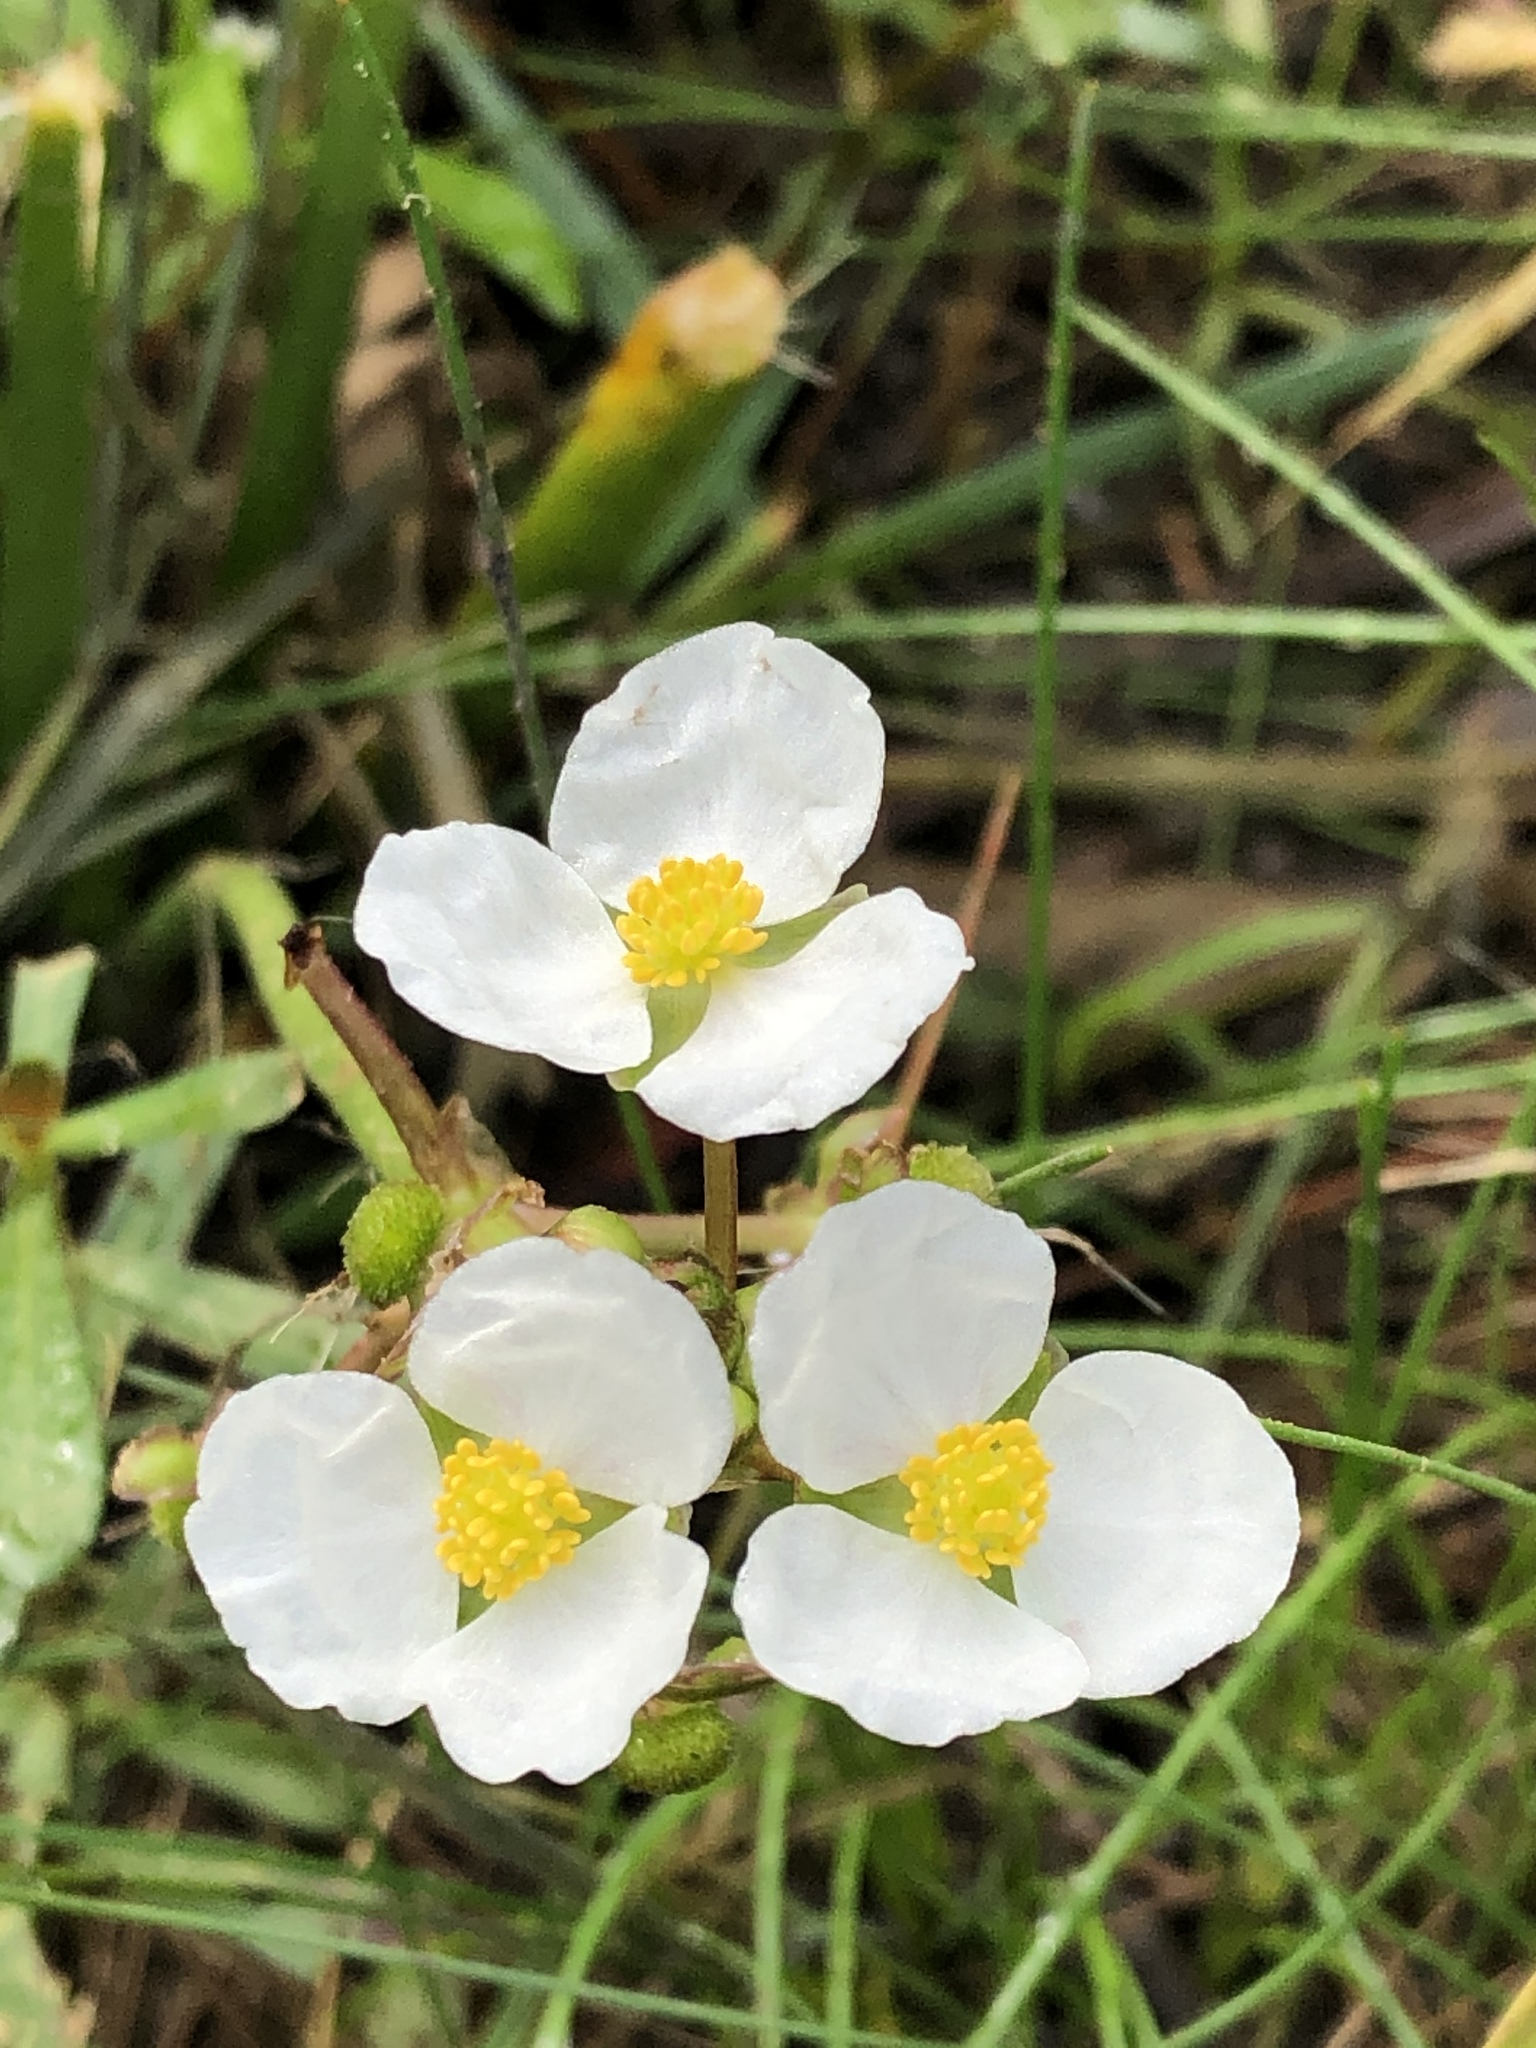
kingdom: Plantae
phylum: Tracheophyta
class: Liliopsida
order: Alismatales
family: Alismataceae
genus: Sagittaria
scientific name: Sagittaria platyphylla
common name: Broad-leaf arrowhead
